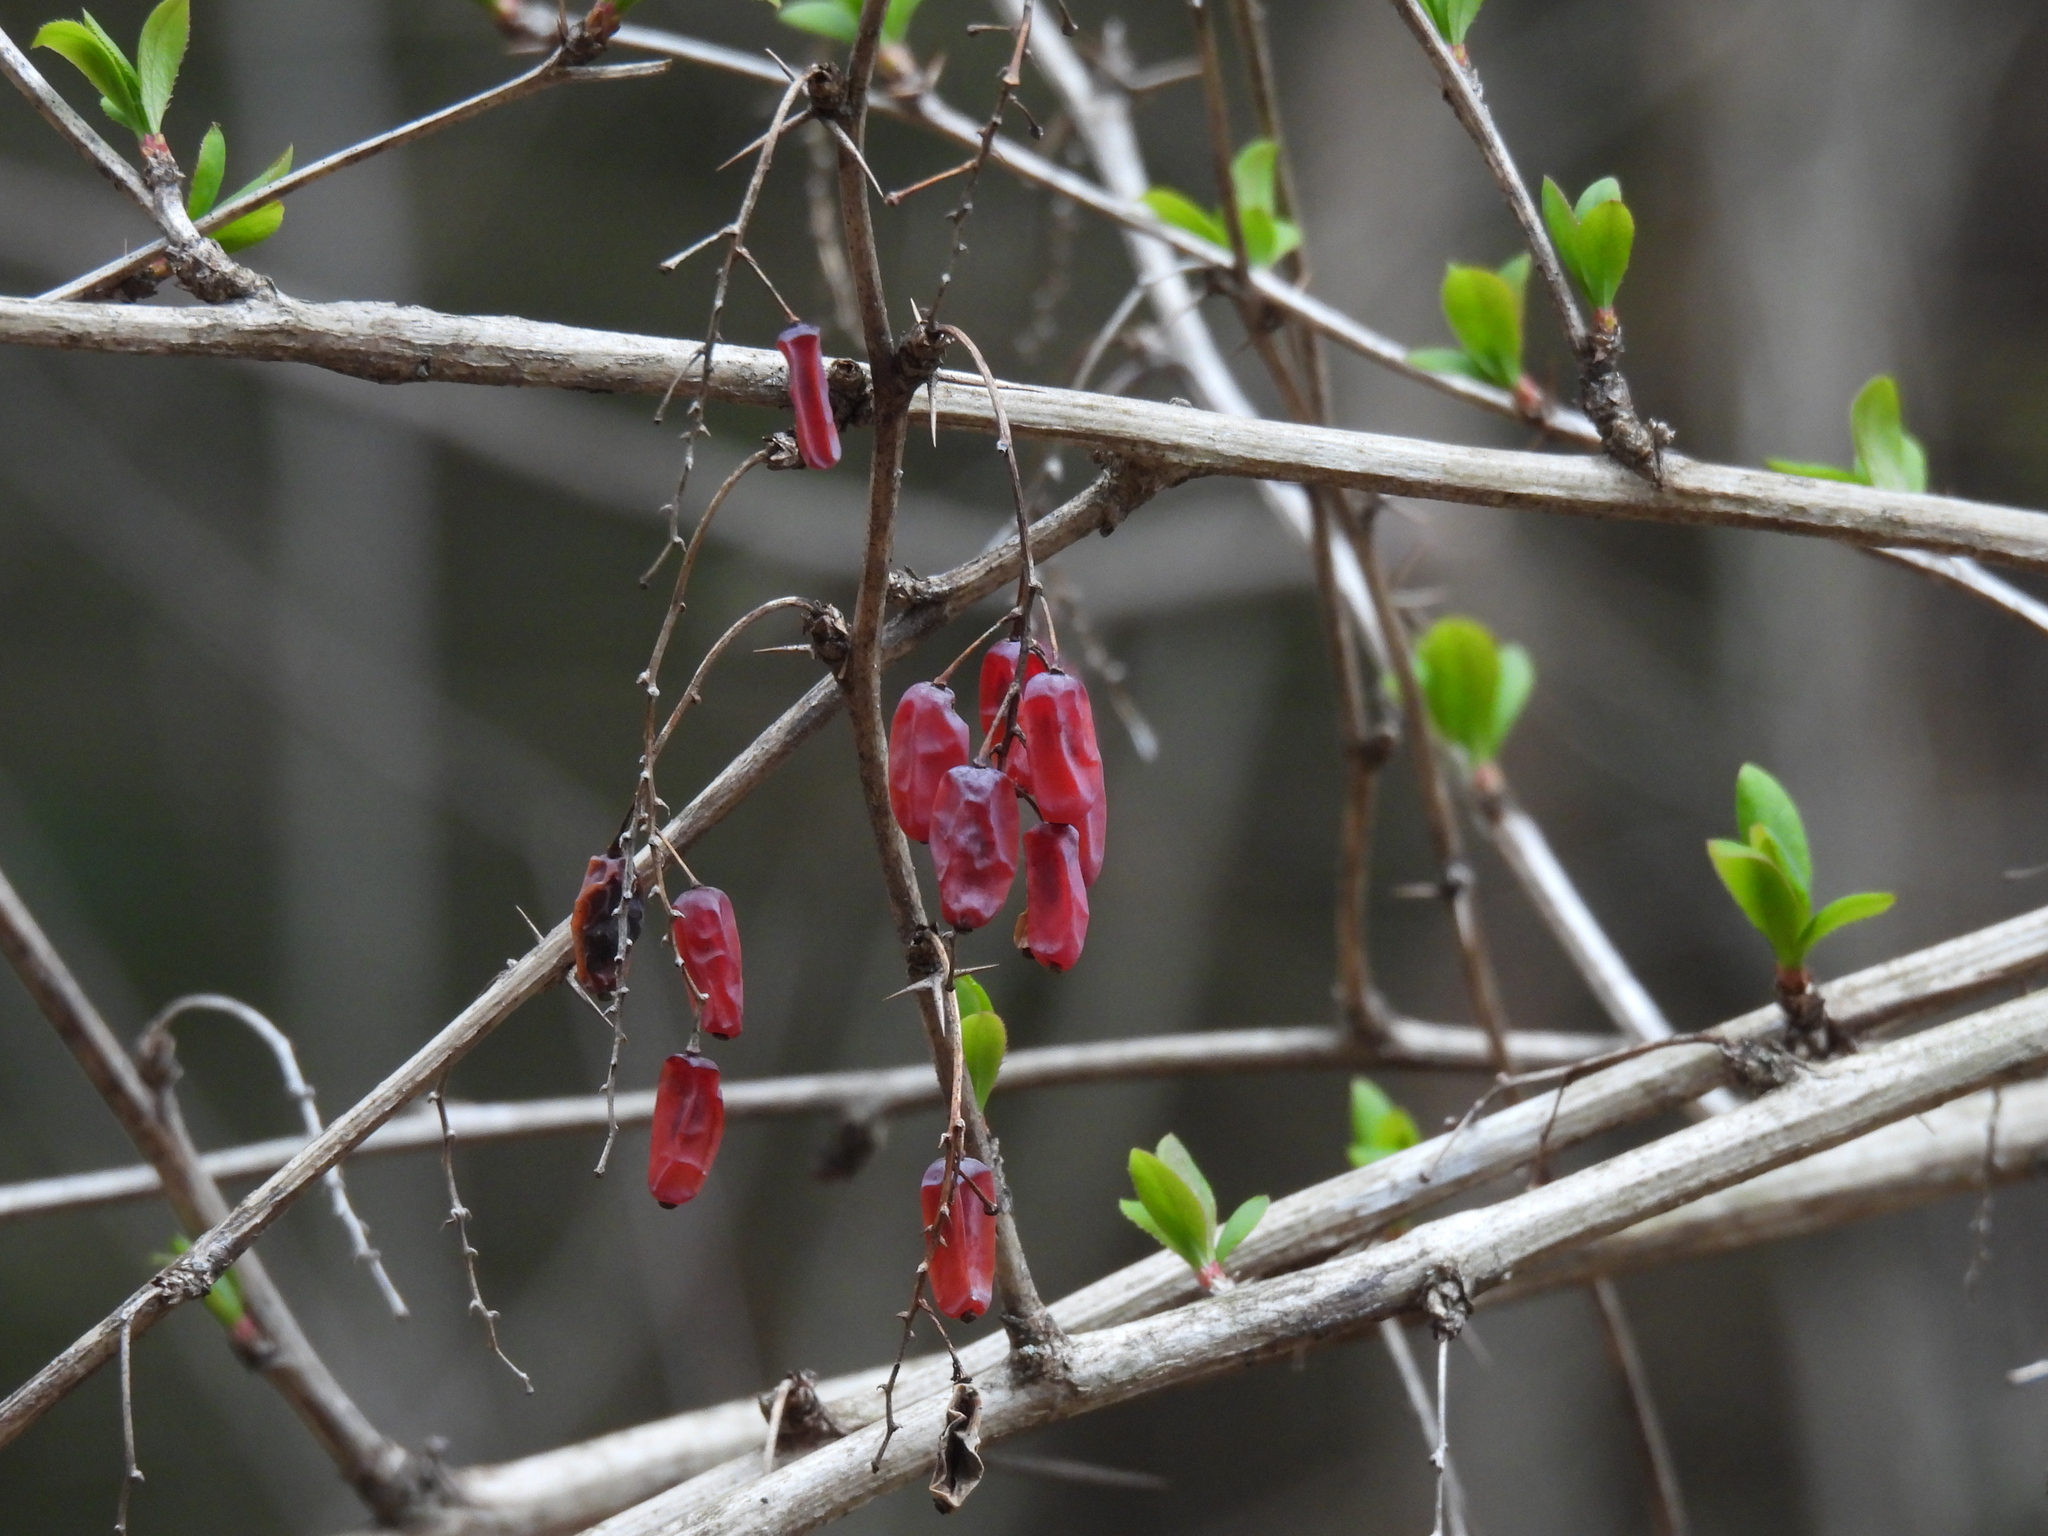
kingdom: Plantae
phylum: Tracheophyta
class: Magnoliopsida
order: Ranunculales
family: Berberidaceae
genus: Berberis
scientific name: Berberis vulgaris
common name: Barberry
